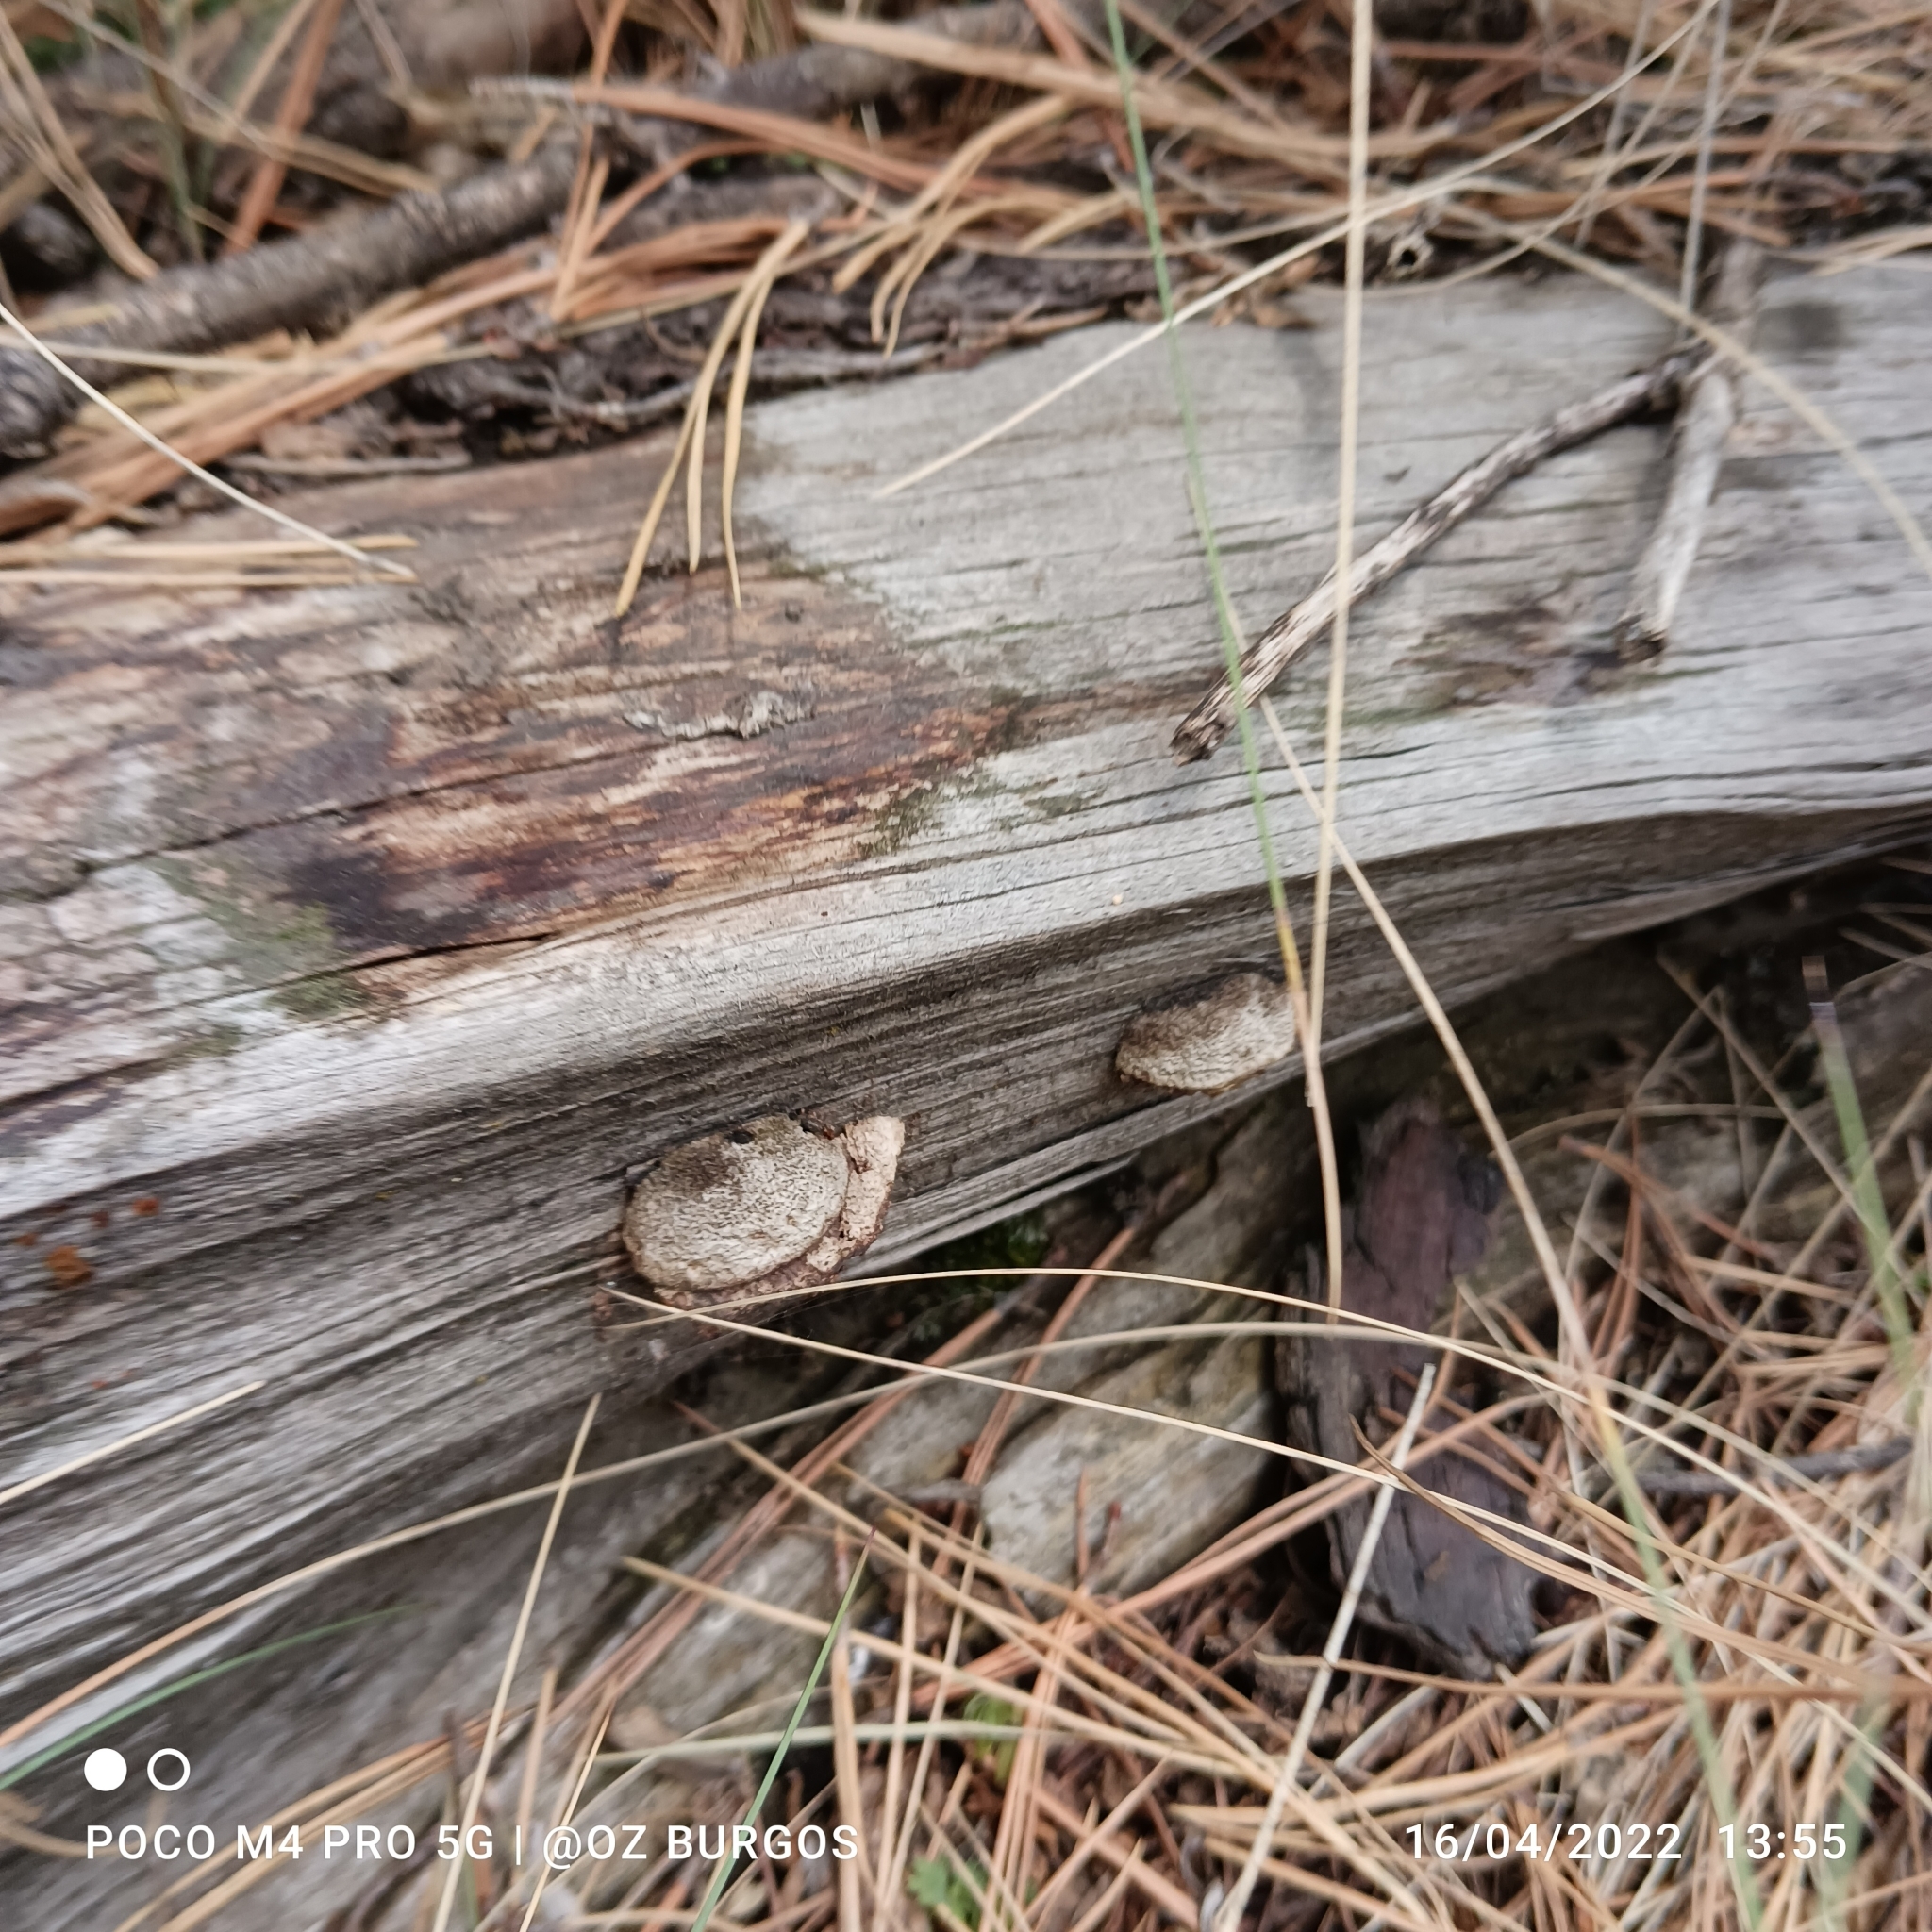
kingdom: Fungi
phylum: Basidiomycota
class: Agaricomycetes
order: Gloeophyllales
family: Gloeophyllaceae
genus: Gloeophyllum
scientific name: Gloeophyllum sepiarium
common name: Conifer mazegill
